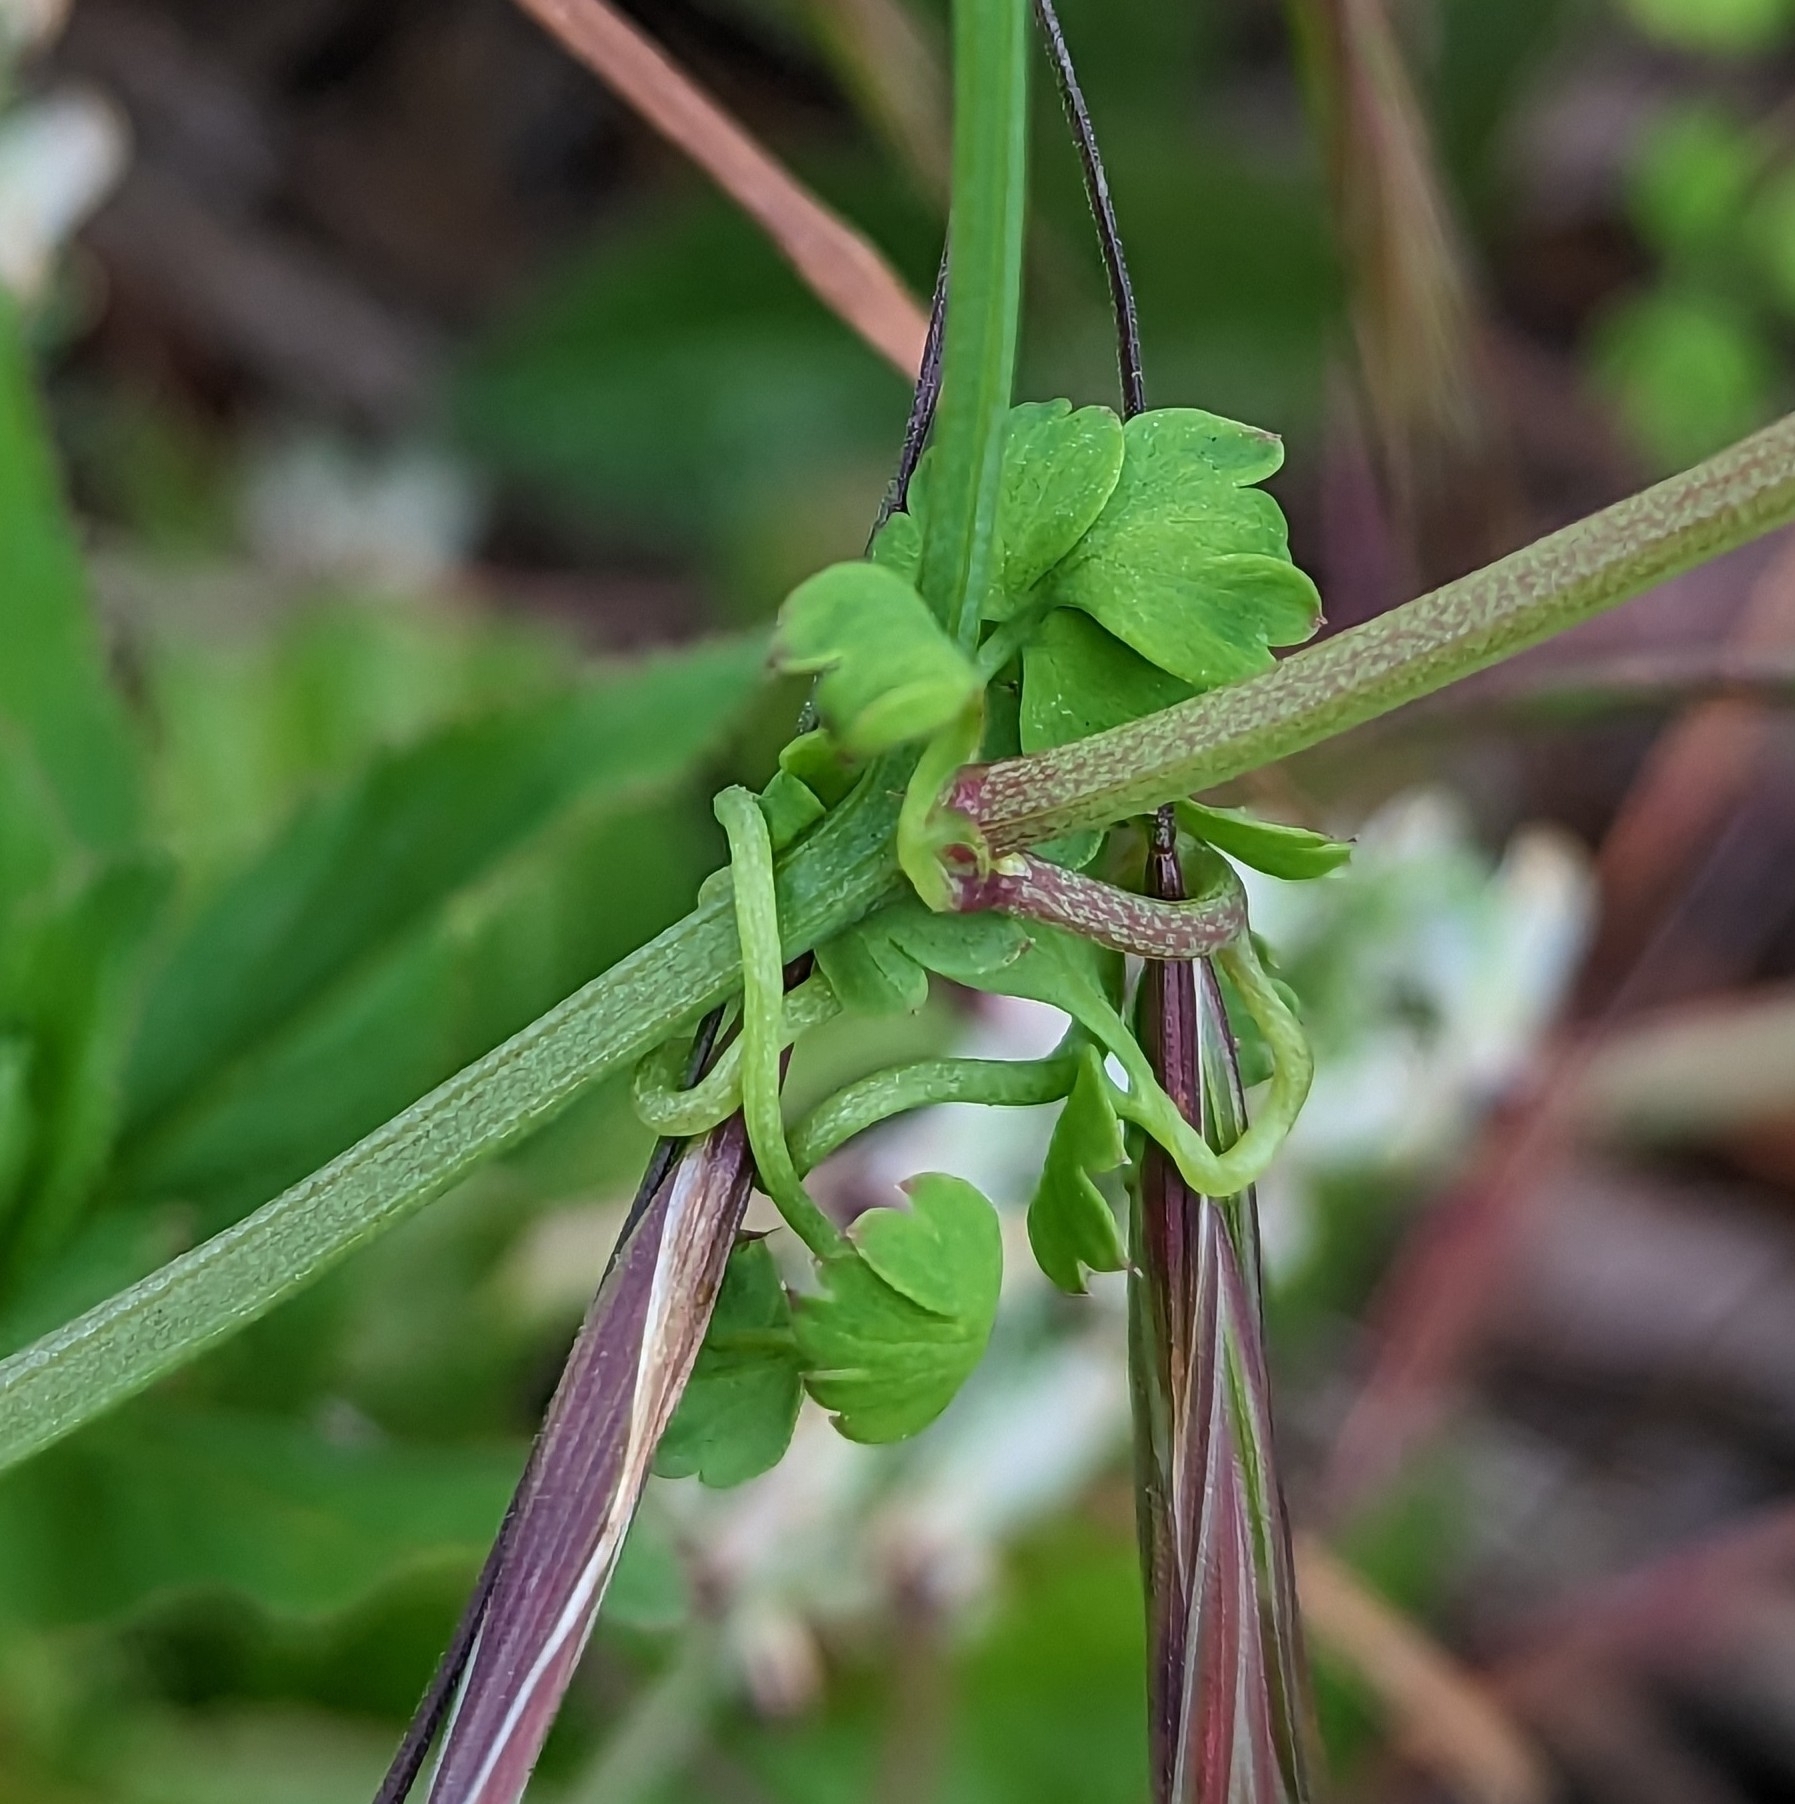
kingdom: Plantae
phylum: Tracheophyta
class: Magnoliopsida
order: Ranunculales
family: Papaveraceae
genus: Fumaria
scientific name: Fumaria capreolata
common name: White ramping-fumitory
